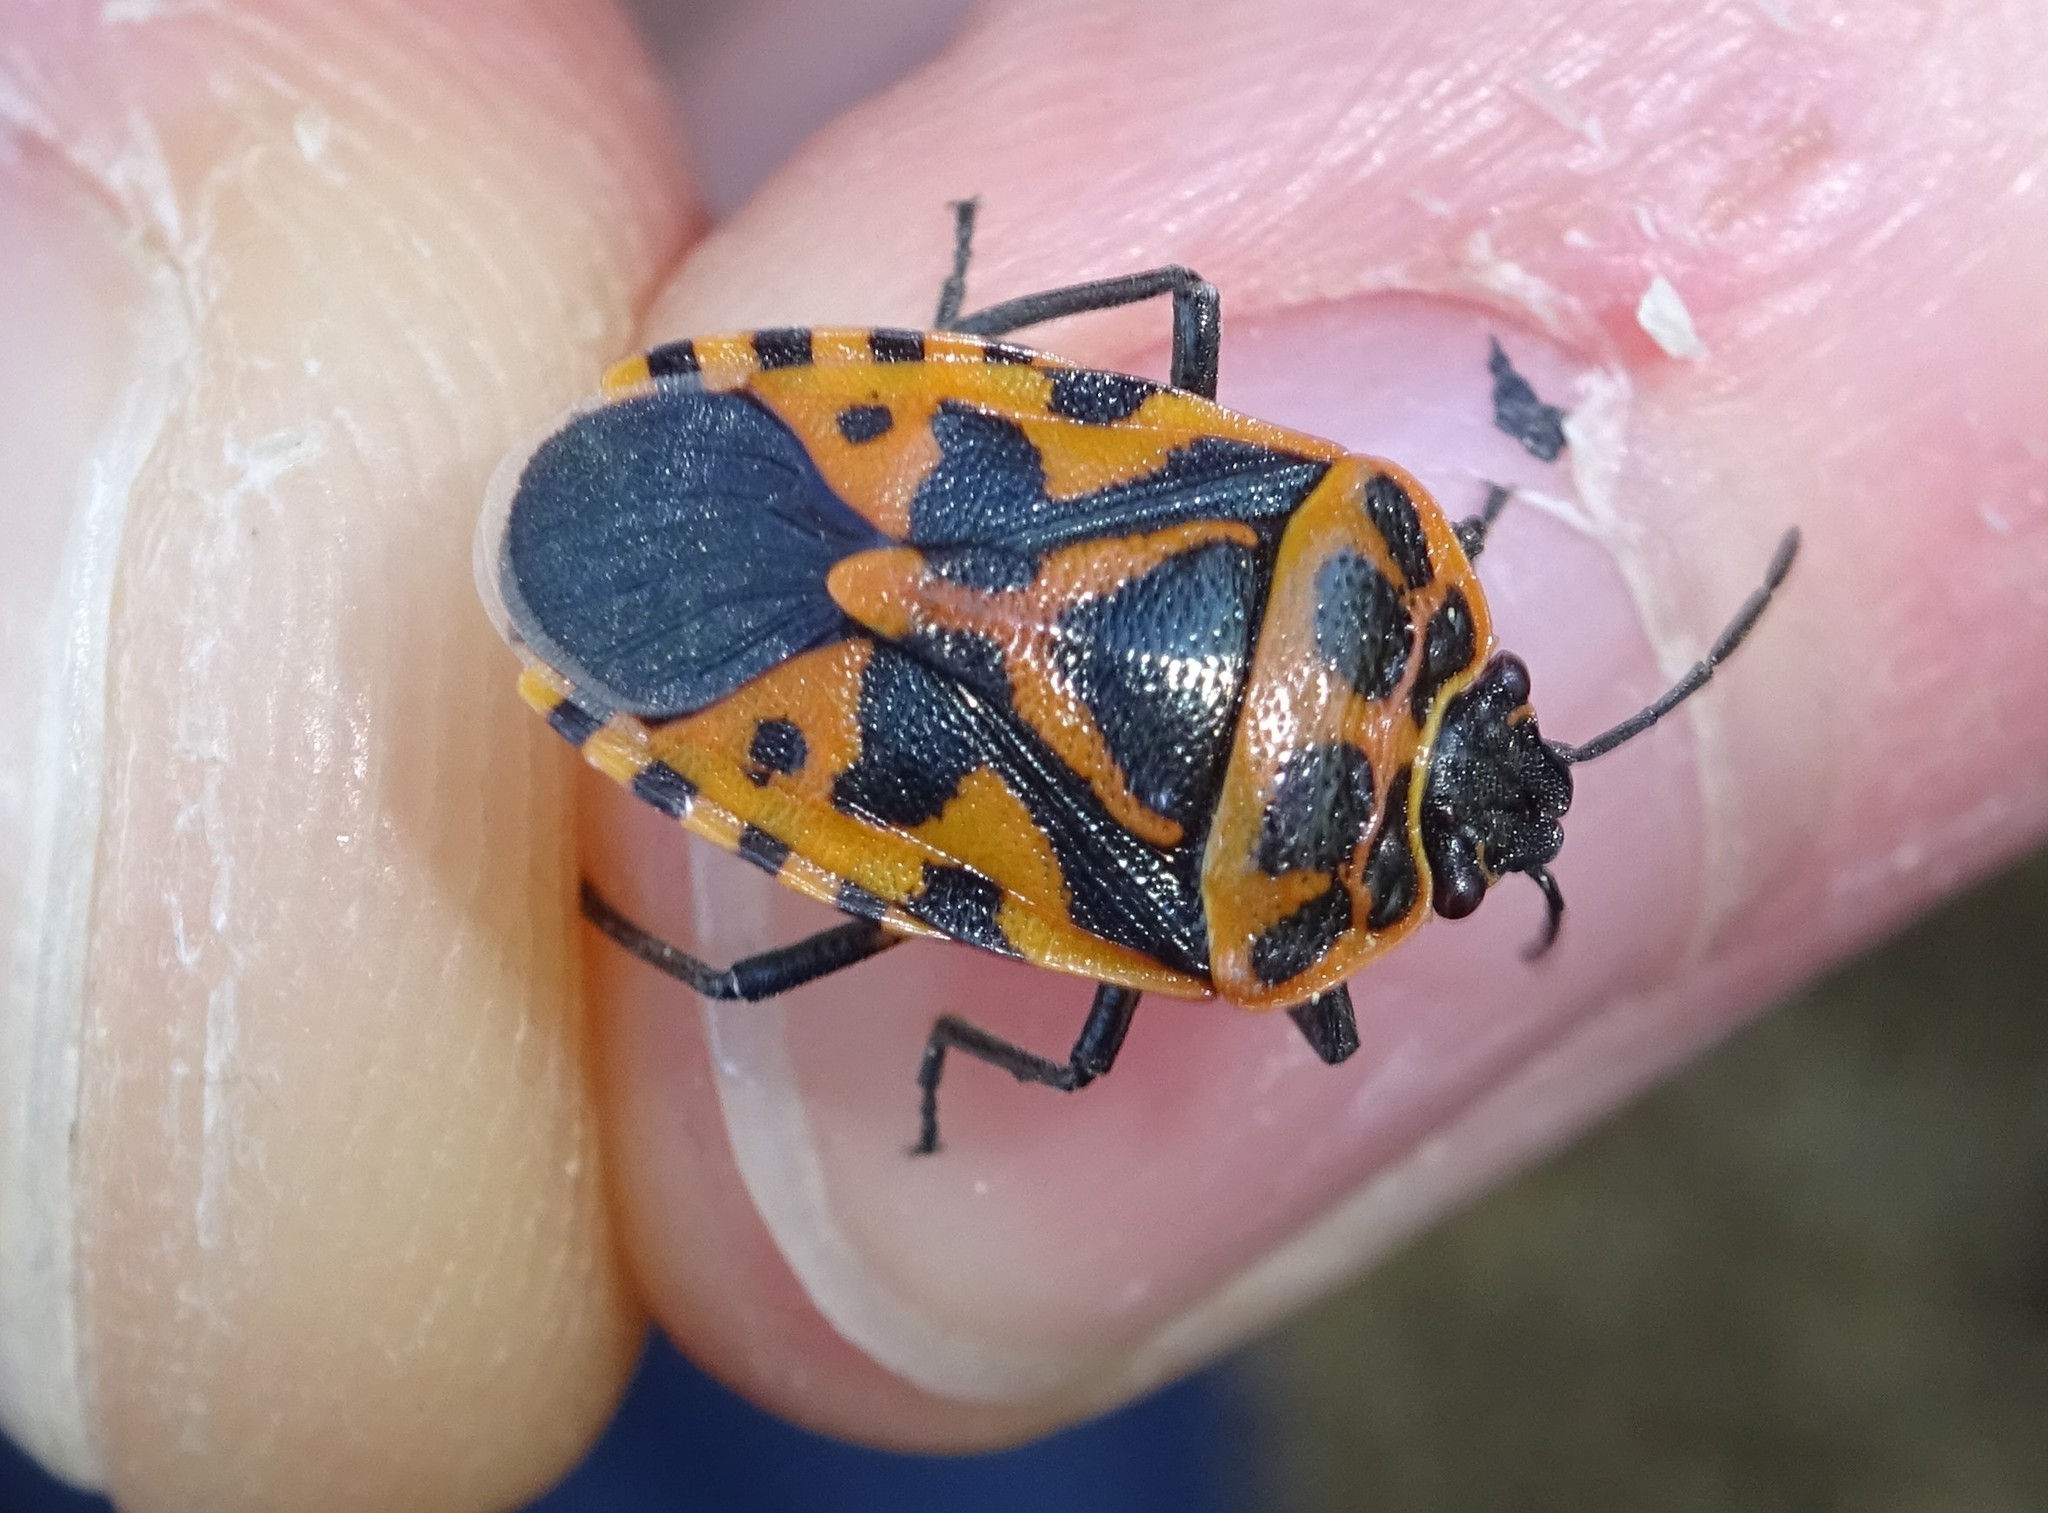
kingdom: Animalia
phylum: Arthropoda
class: Insecta
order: Hemiptera
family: Pentatomidae
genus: Eurydema
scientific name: Eurydema ventralis
